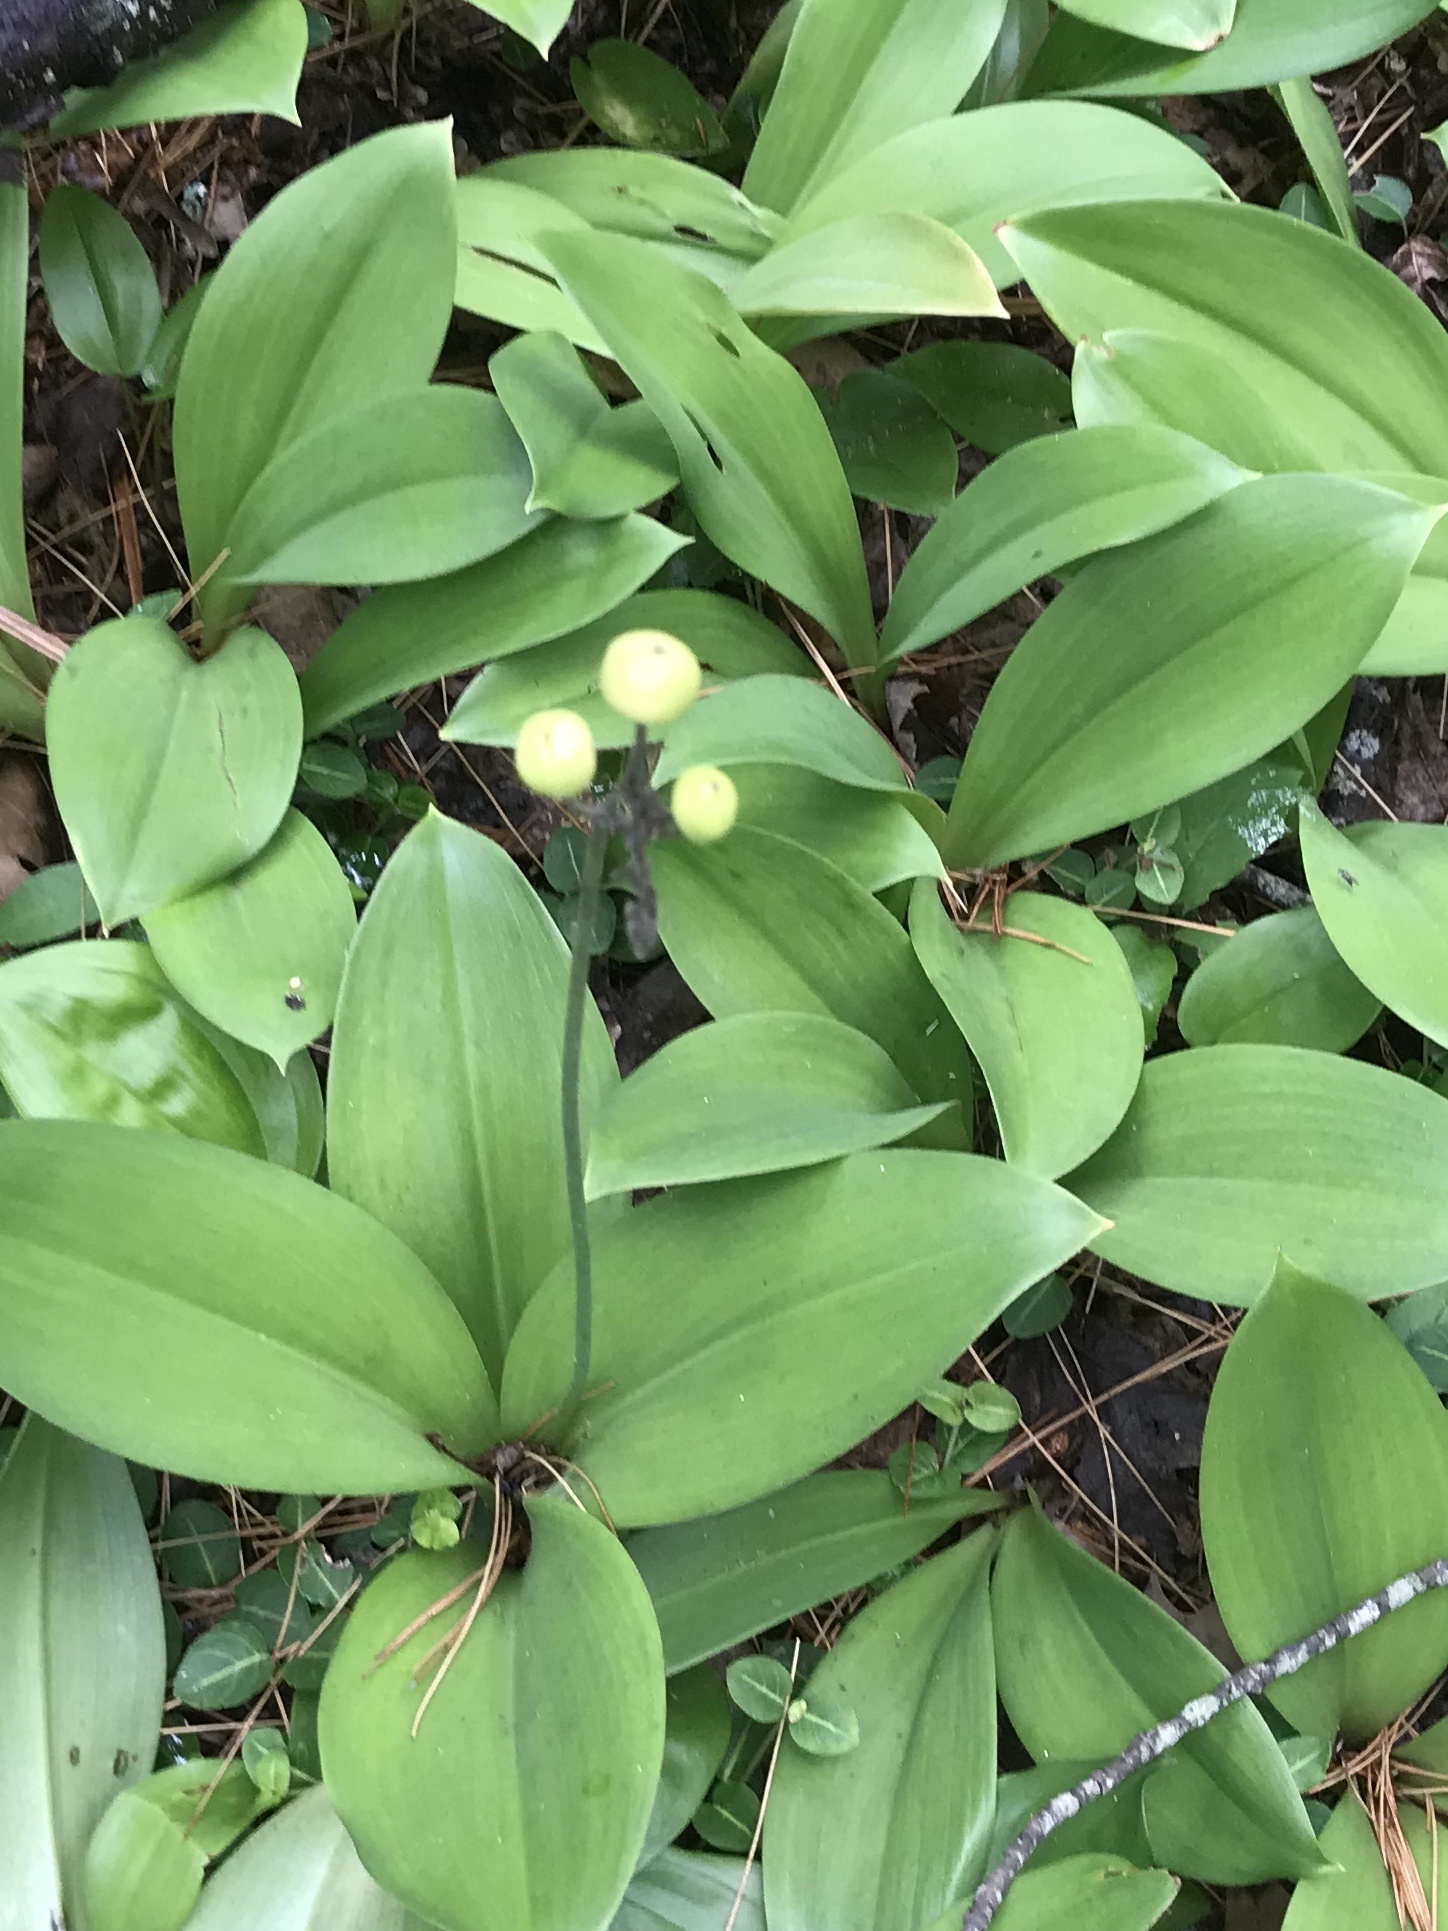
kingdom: Plantae
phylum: Tracheophyta
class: Liliopsida
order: Liliales
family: Liliaceae
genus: Clintonia
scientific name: Clintonia borealis
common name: Yellow clintonia
